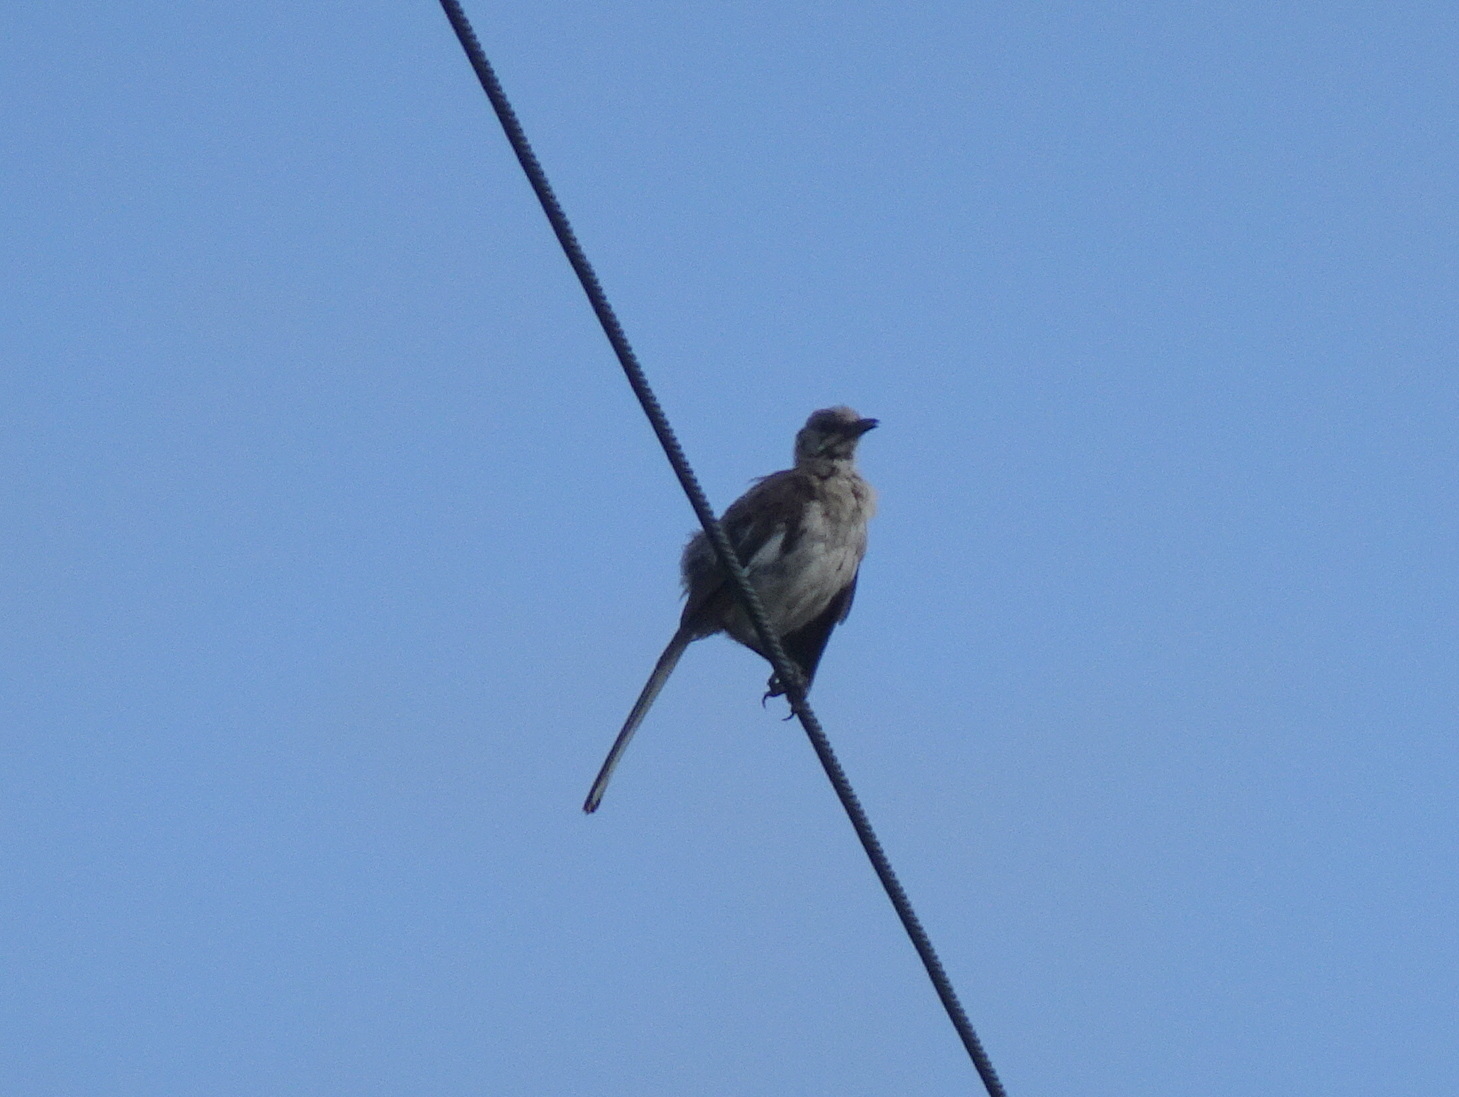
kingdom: Animalia
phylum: Chordata
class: Aves
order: Passeriformes
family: Mimidae
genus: Mimus
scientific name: Mimus polyglottos
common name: Northern mockingbird
